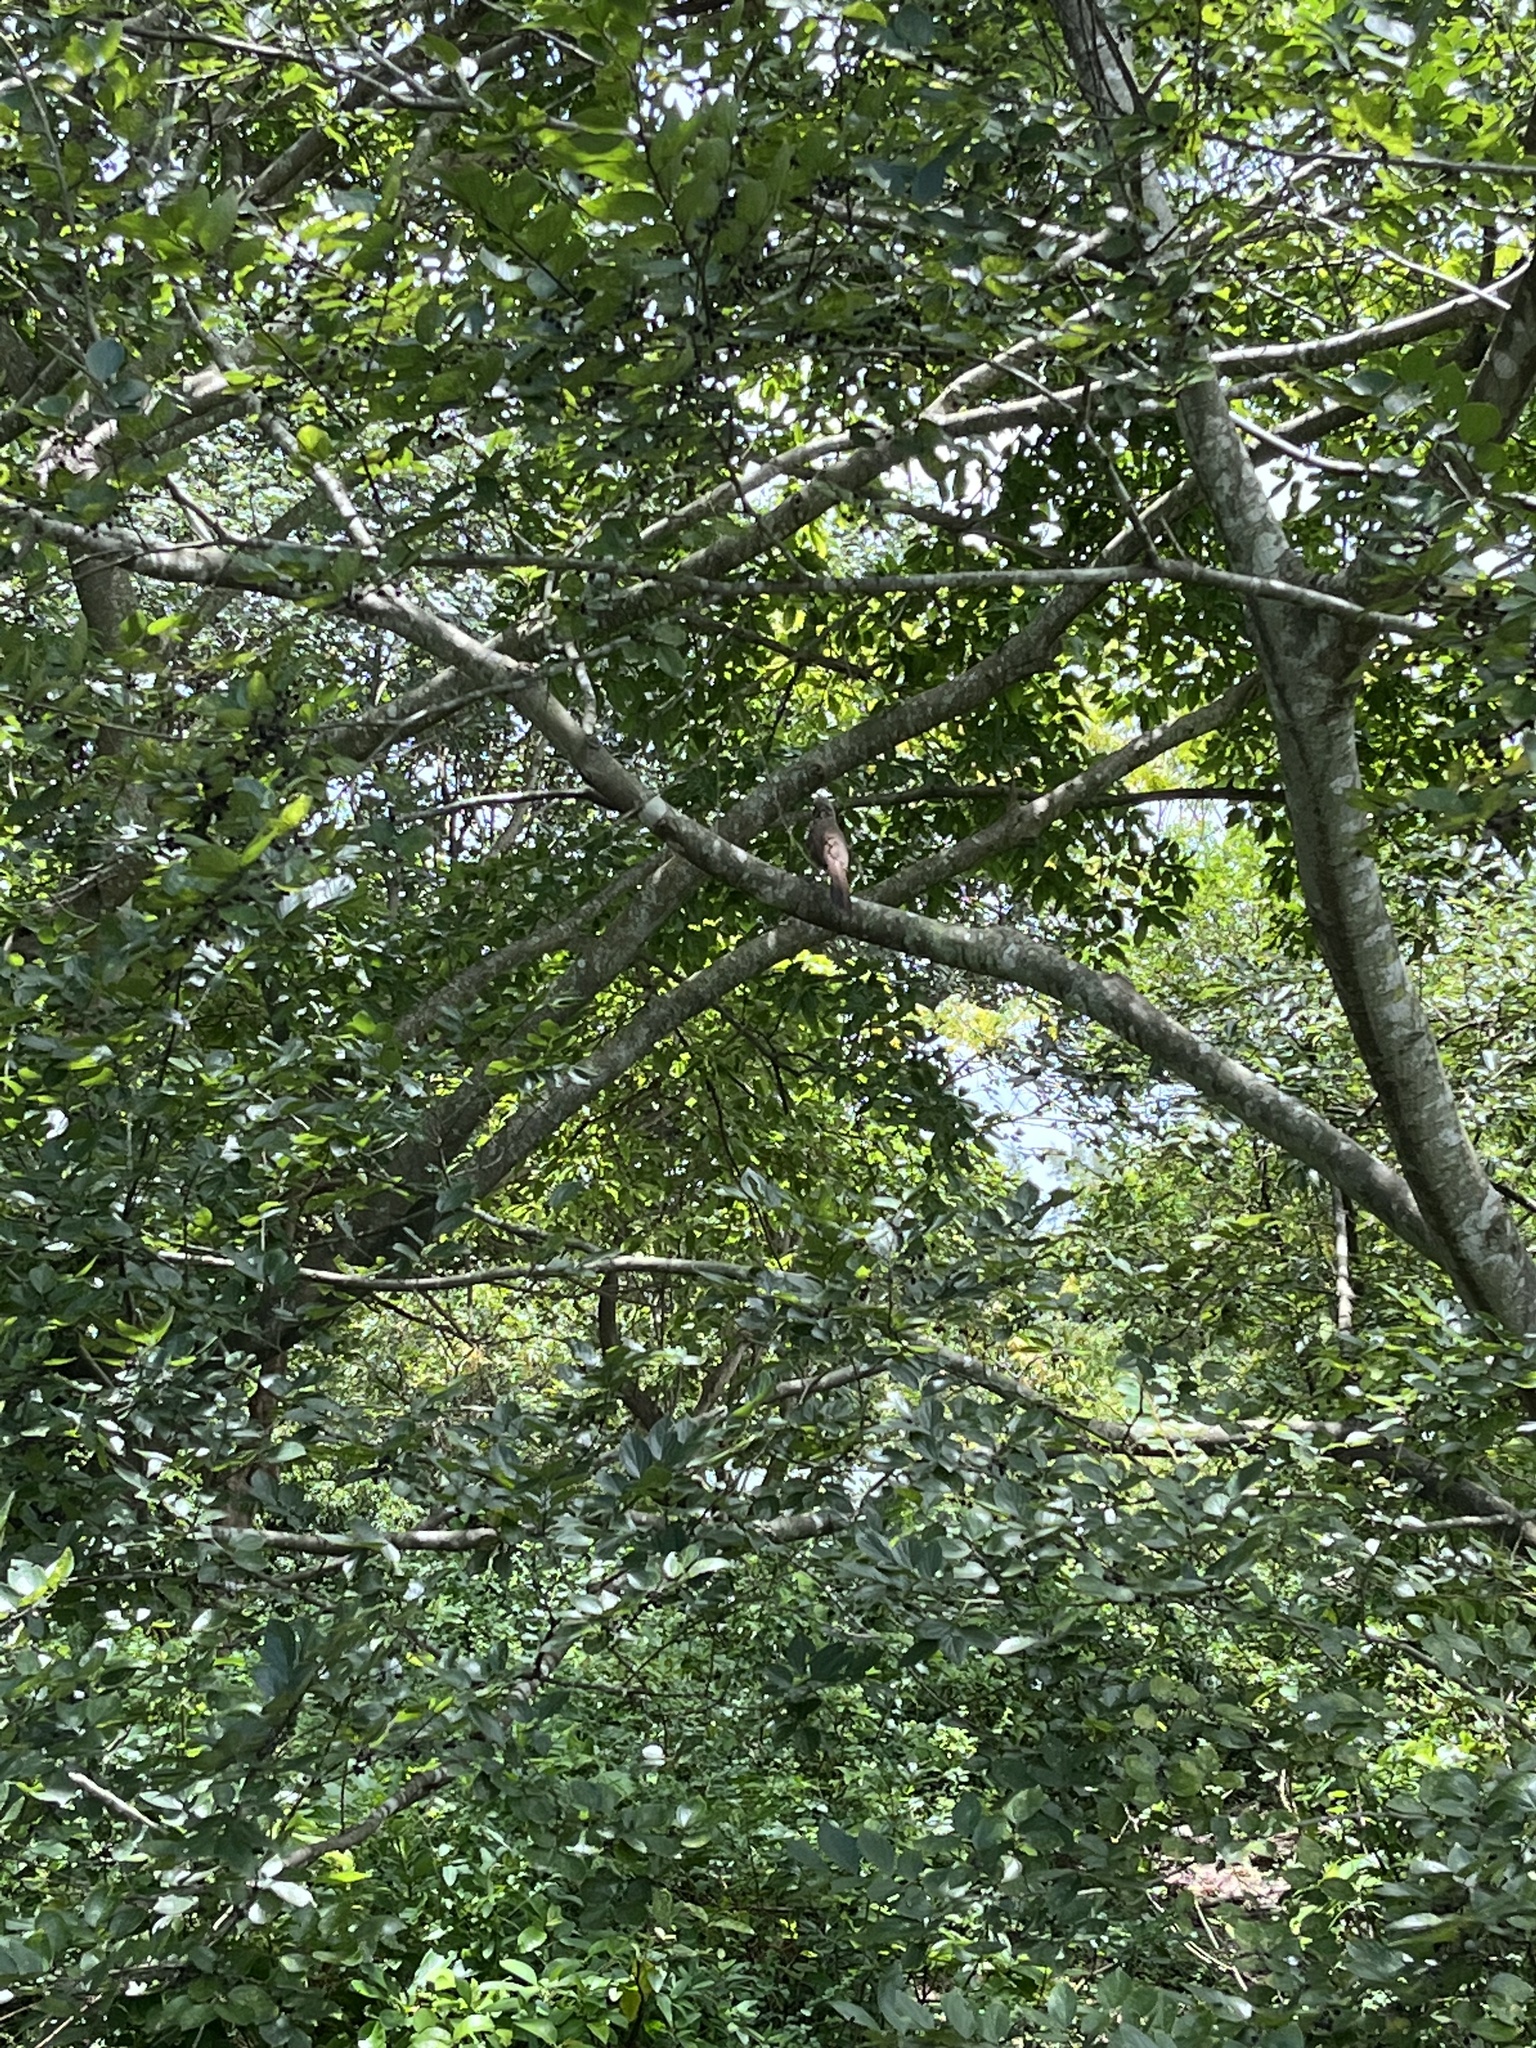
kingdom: Animalia
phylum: Chordata
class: Aves
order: Passeriformes
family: Leiothrichidae
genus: Garrulax
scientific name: Garrulax perspicillatus
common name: Masked laughingthrush
